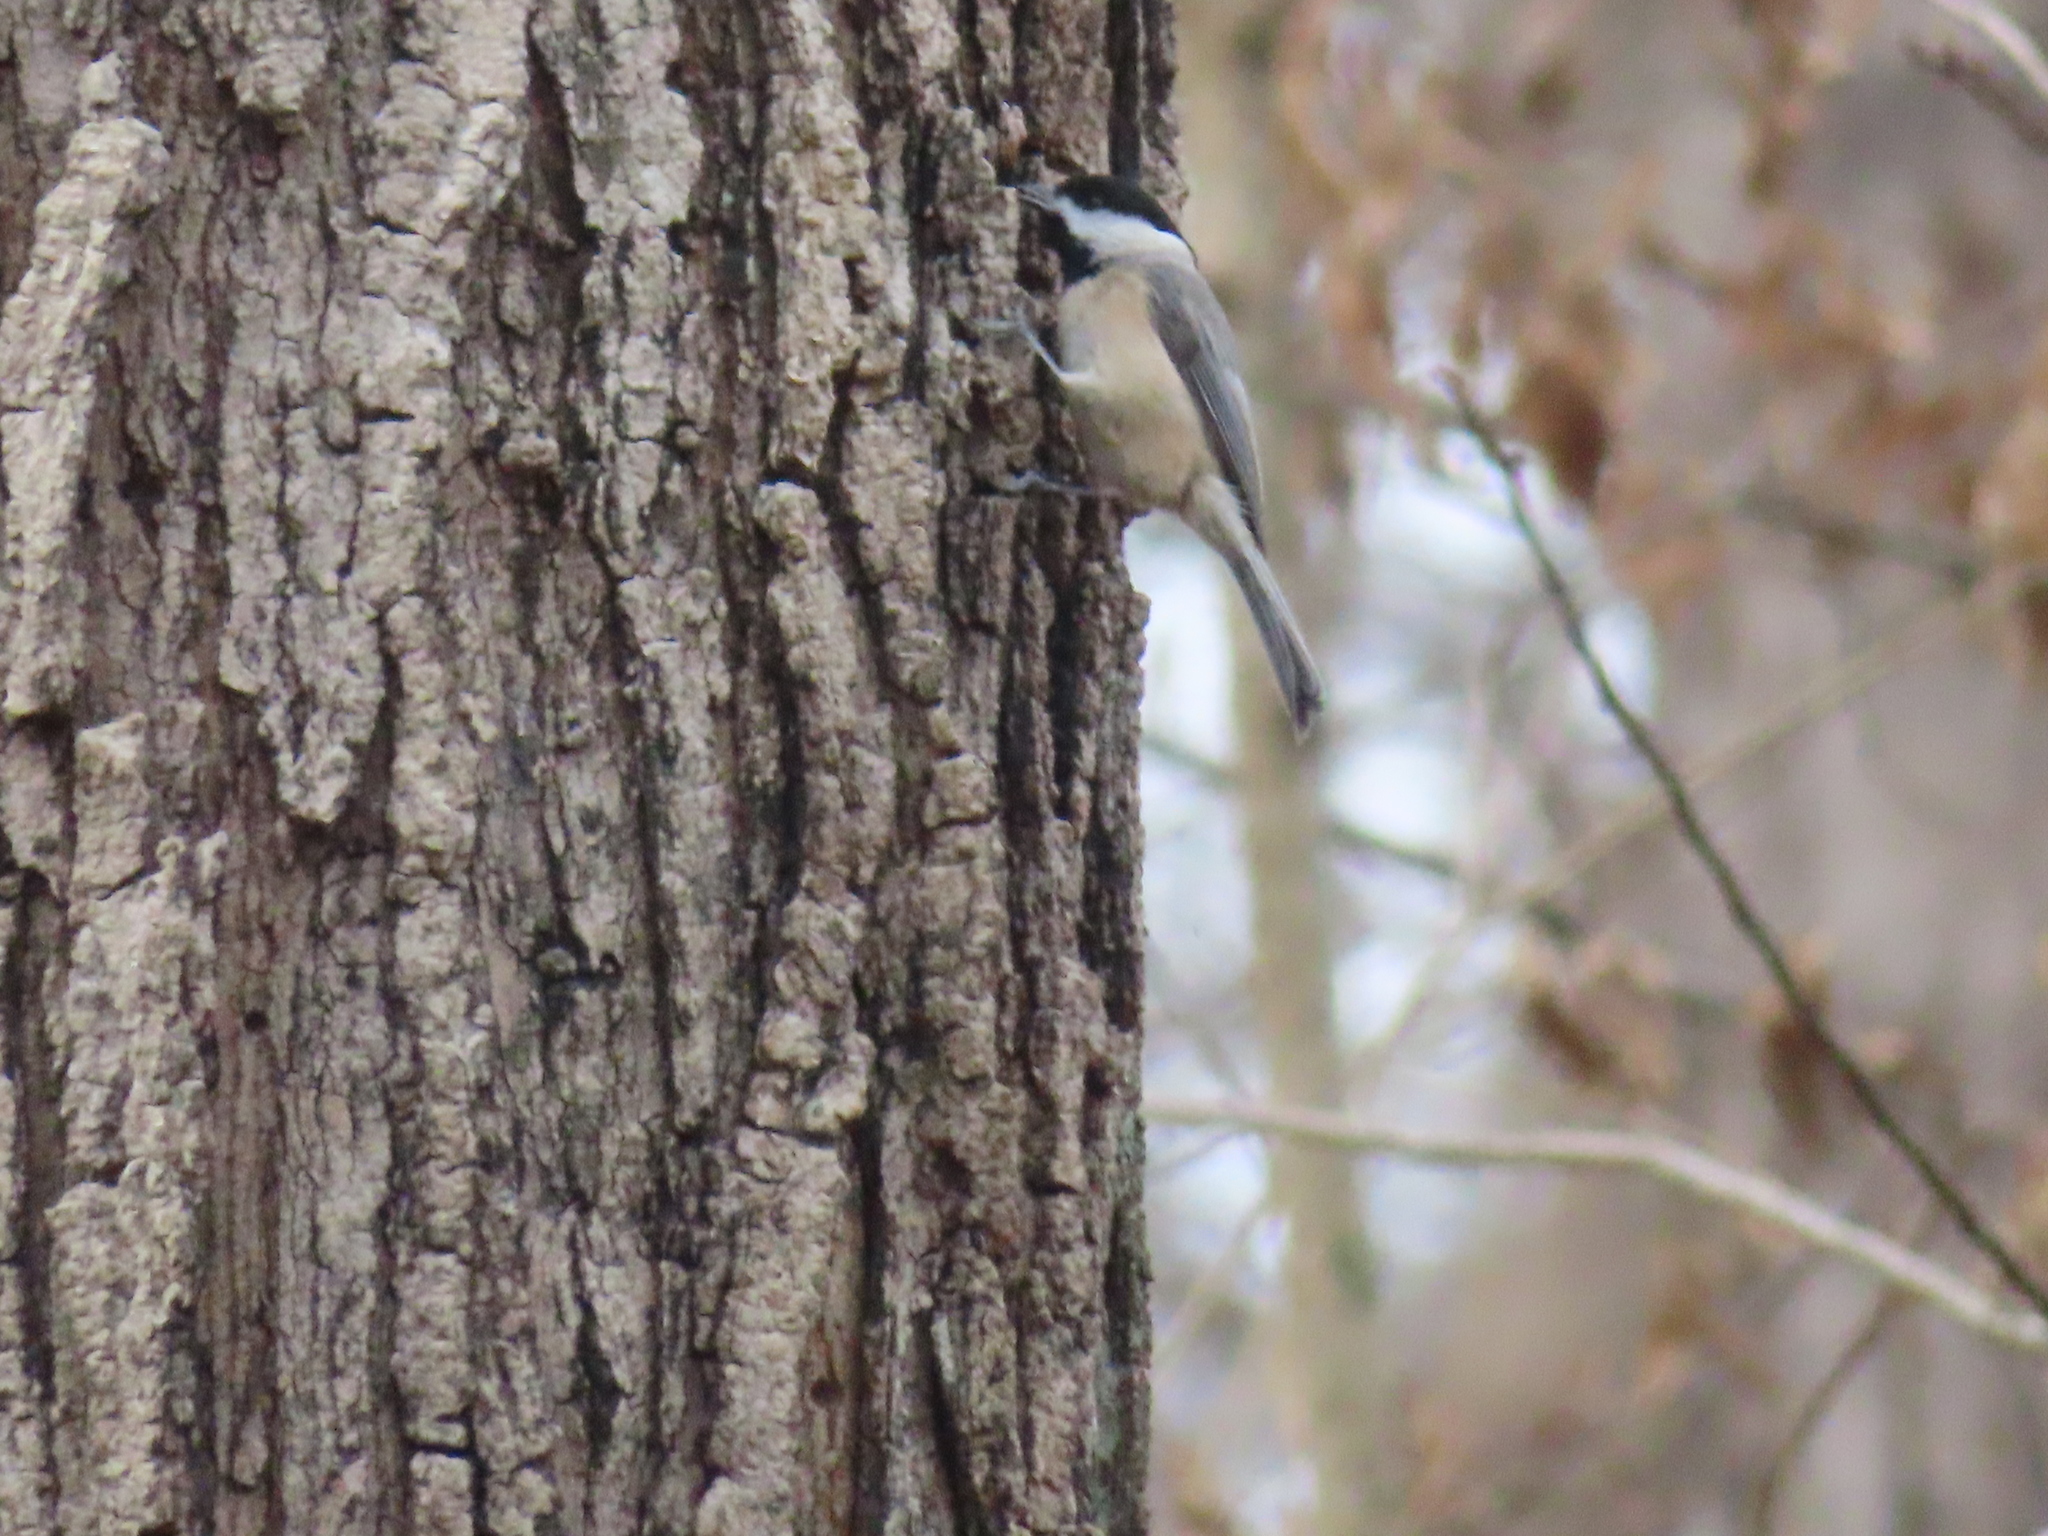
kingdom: Animalia
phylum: Chordata
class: Aves
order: Passeriformes
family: Paridae
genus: Poecile
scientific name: Poecile carolinensis
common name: Carolina chickadee
